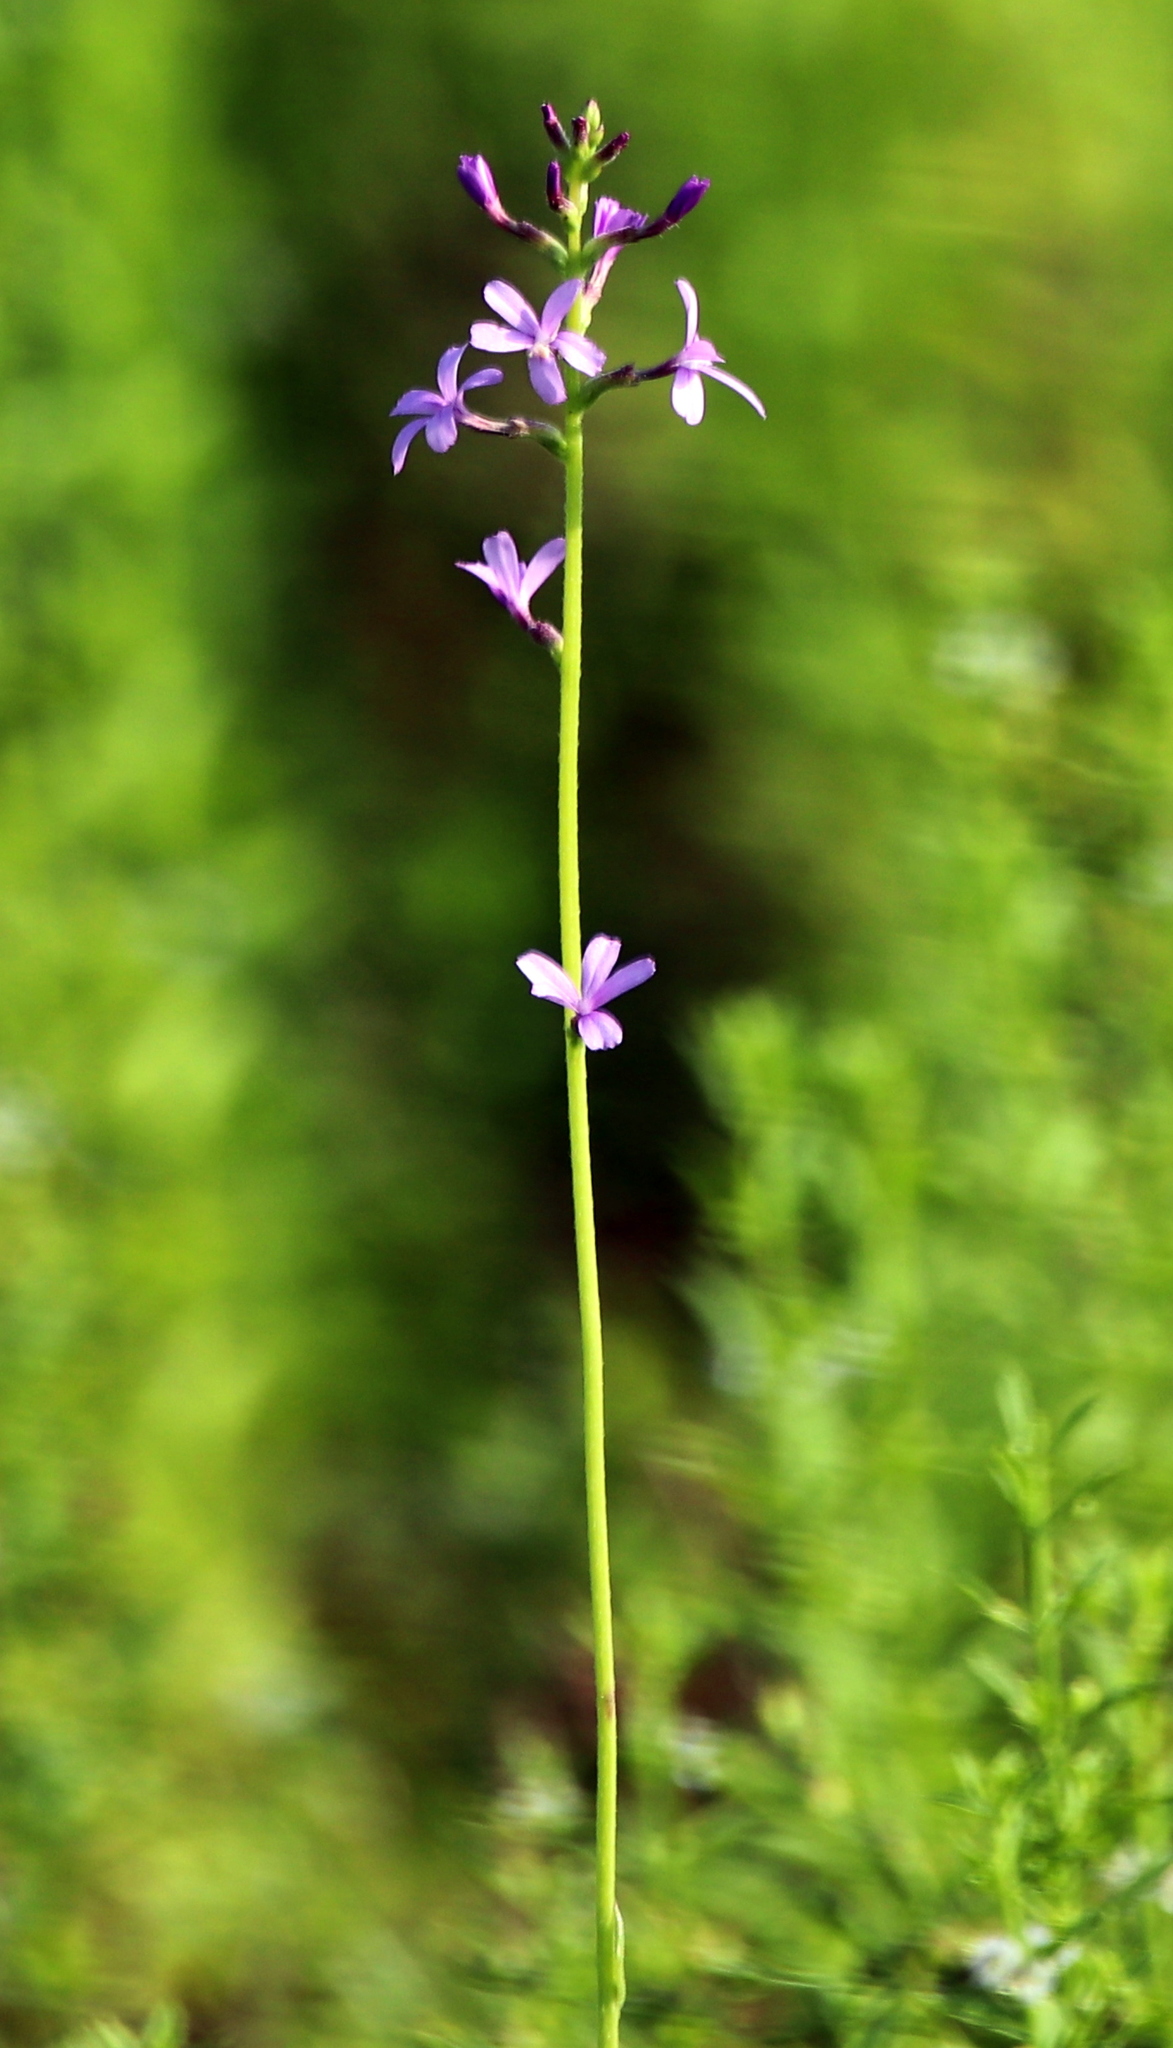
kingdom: Plantae
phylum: Tracheophyta
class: Magnoliopsida
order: Lamiales
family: Orobanchaceae
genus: Buchnera
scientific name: Buchnera floridana
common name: Florida bluehearts
